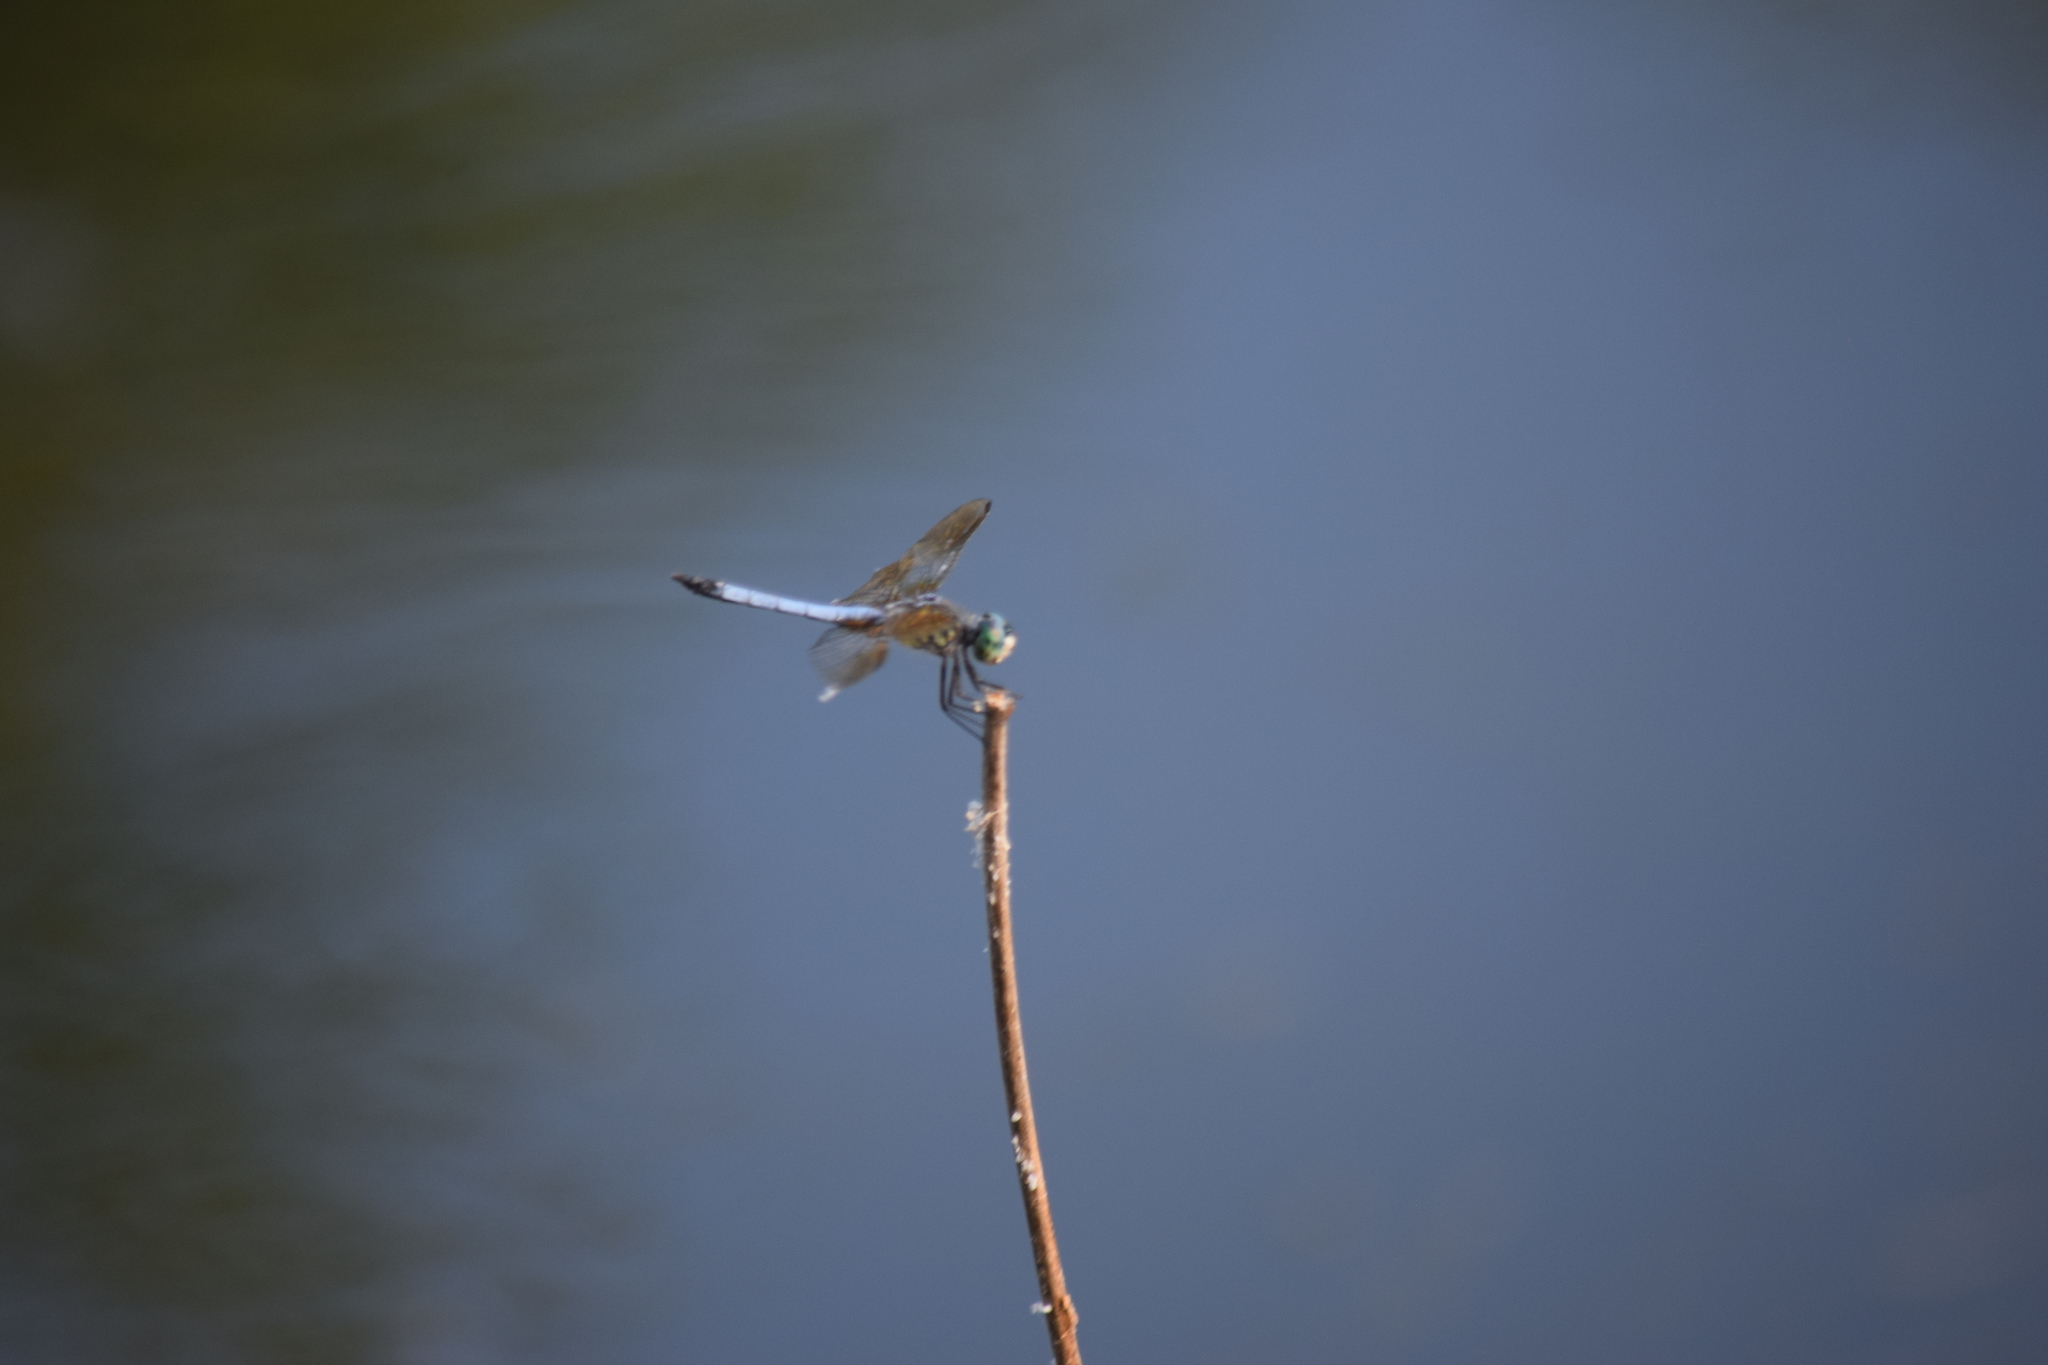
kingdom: Animalia
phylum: Arthropoda
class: Insecta
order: Odonata
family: Libellulidae
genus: Pachydiplax
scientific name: Pachydiplax longipennis
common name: Blue dasher
